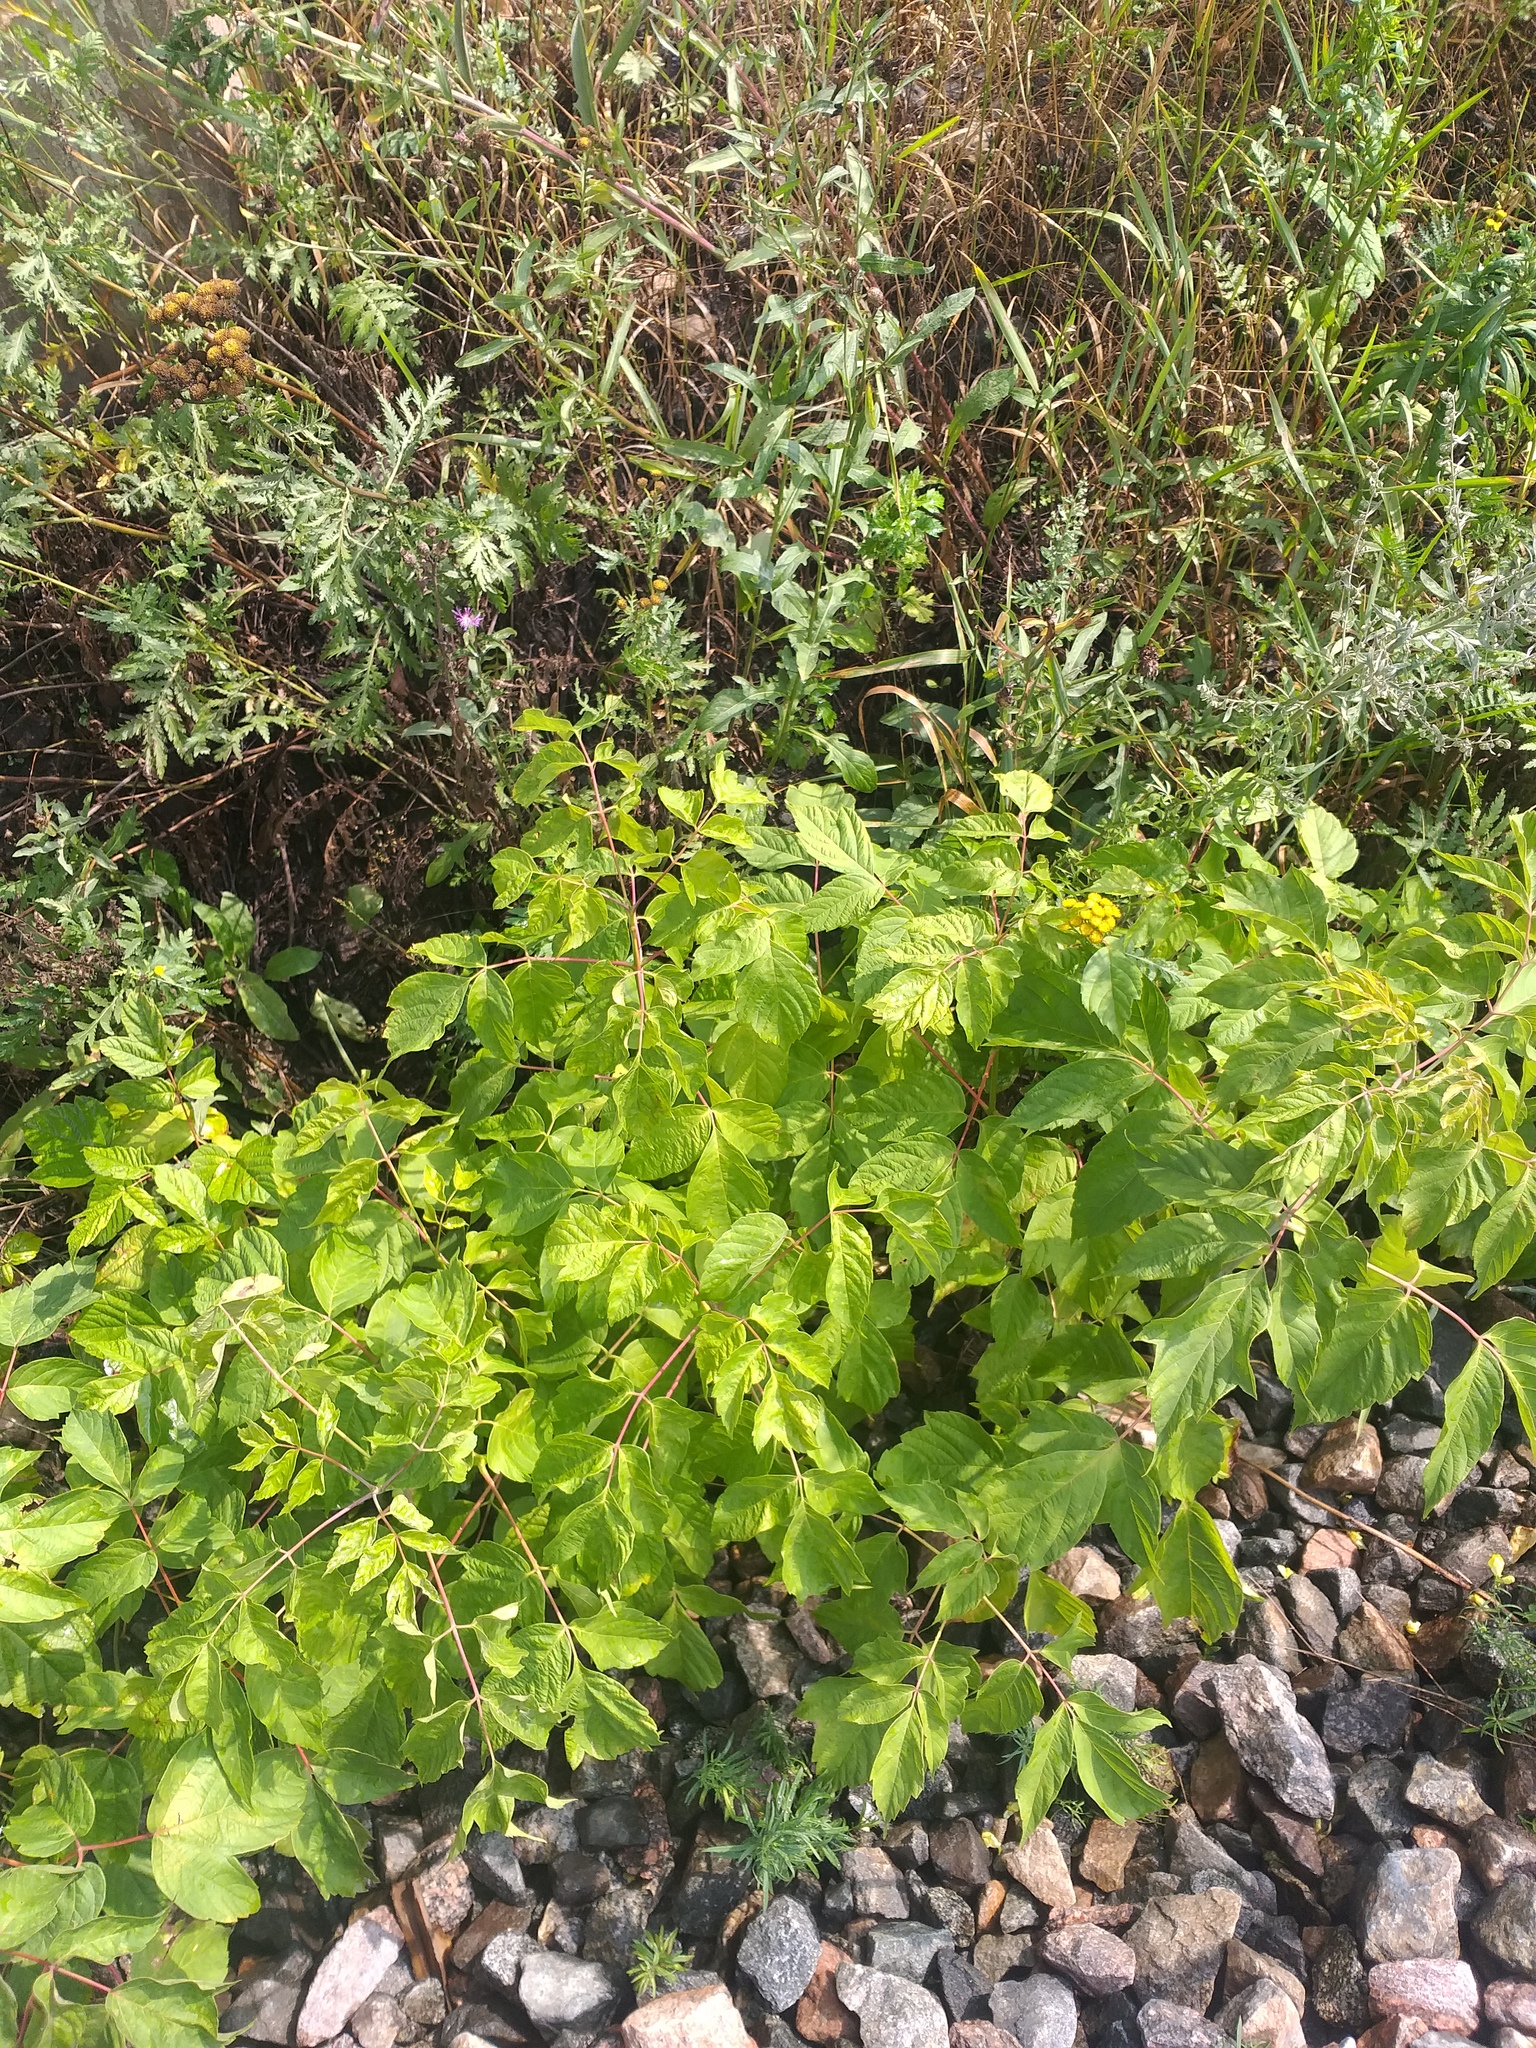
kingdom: Plantae
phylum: Tracheophyta
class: Magnoliopsida
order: Sapindales
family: Sapindaceae
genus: Acer
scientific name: Acer negundo
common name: Ashleaf maple
